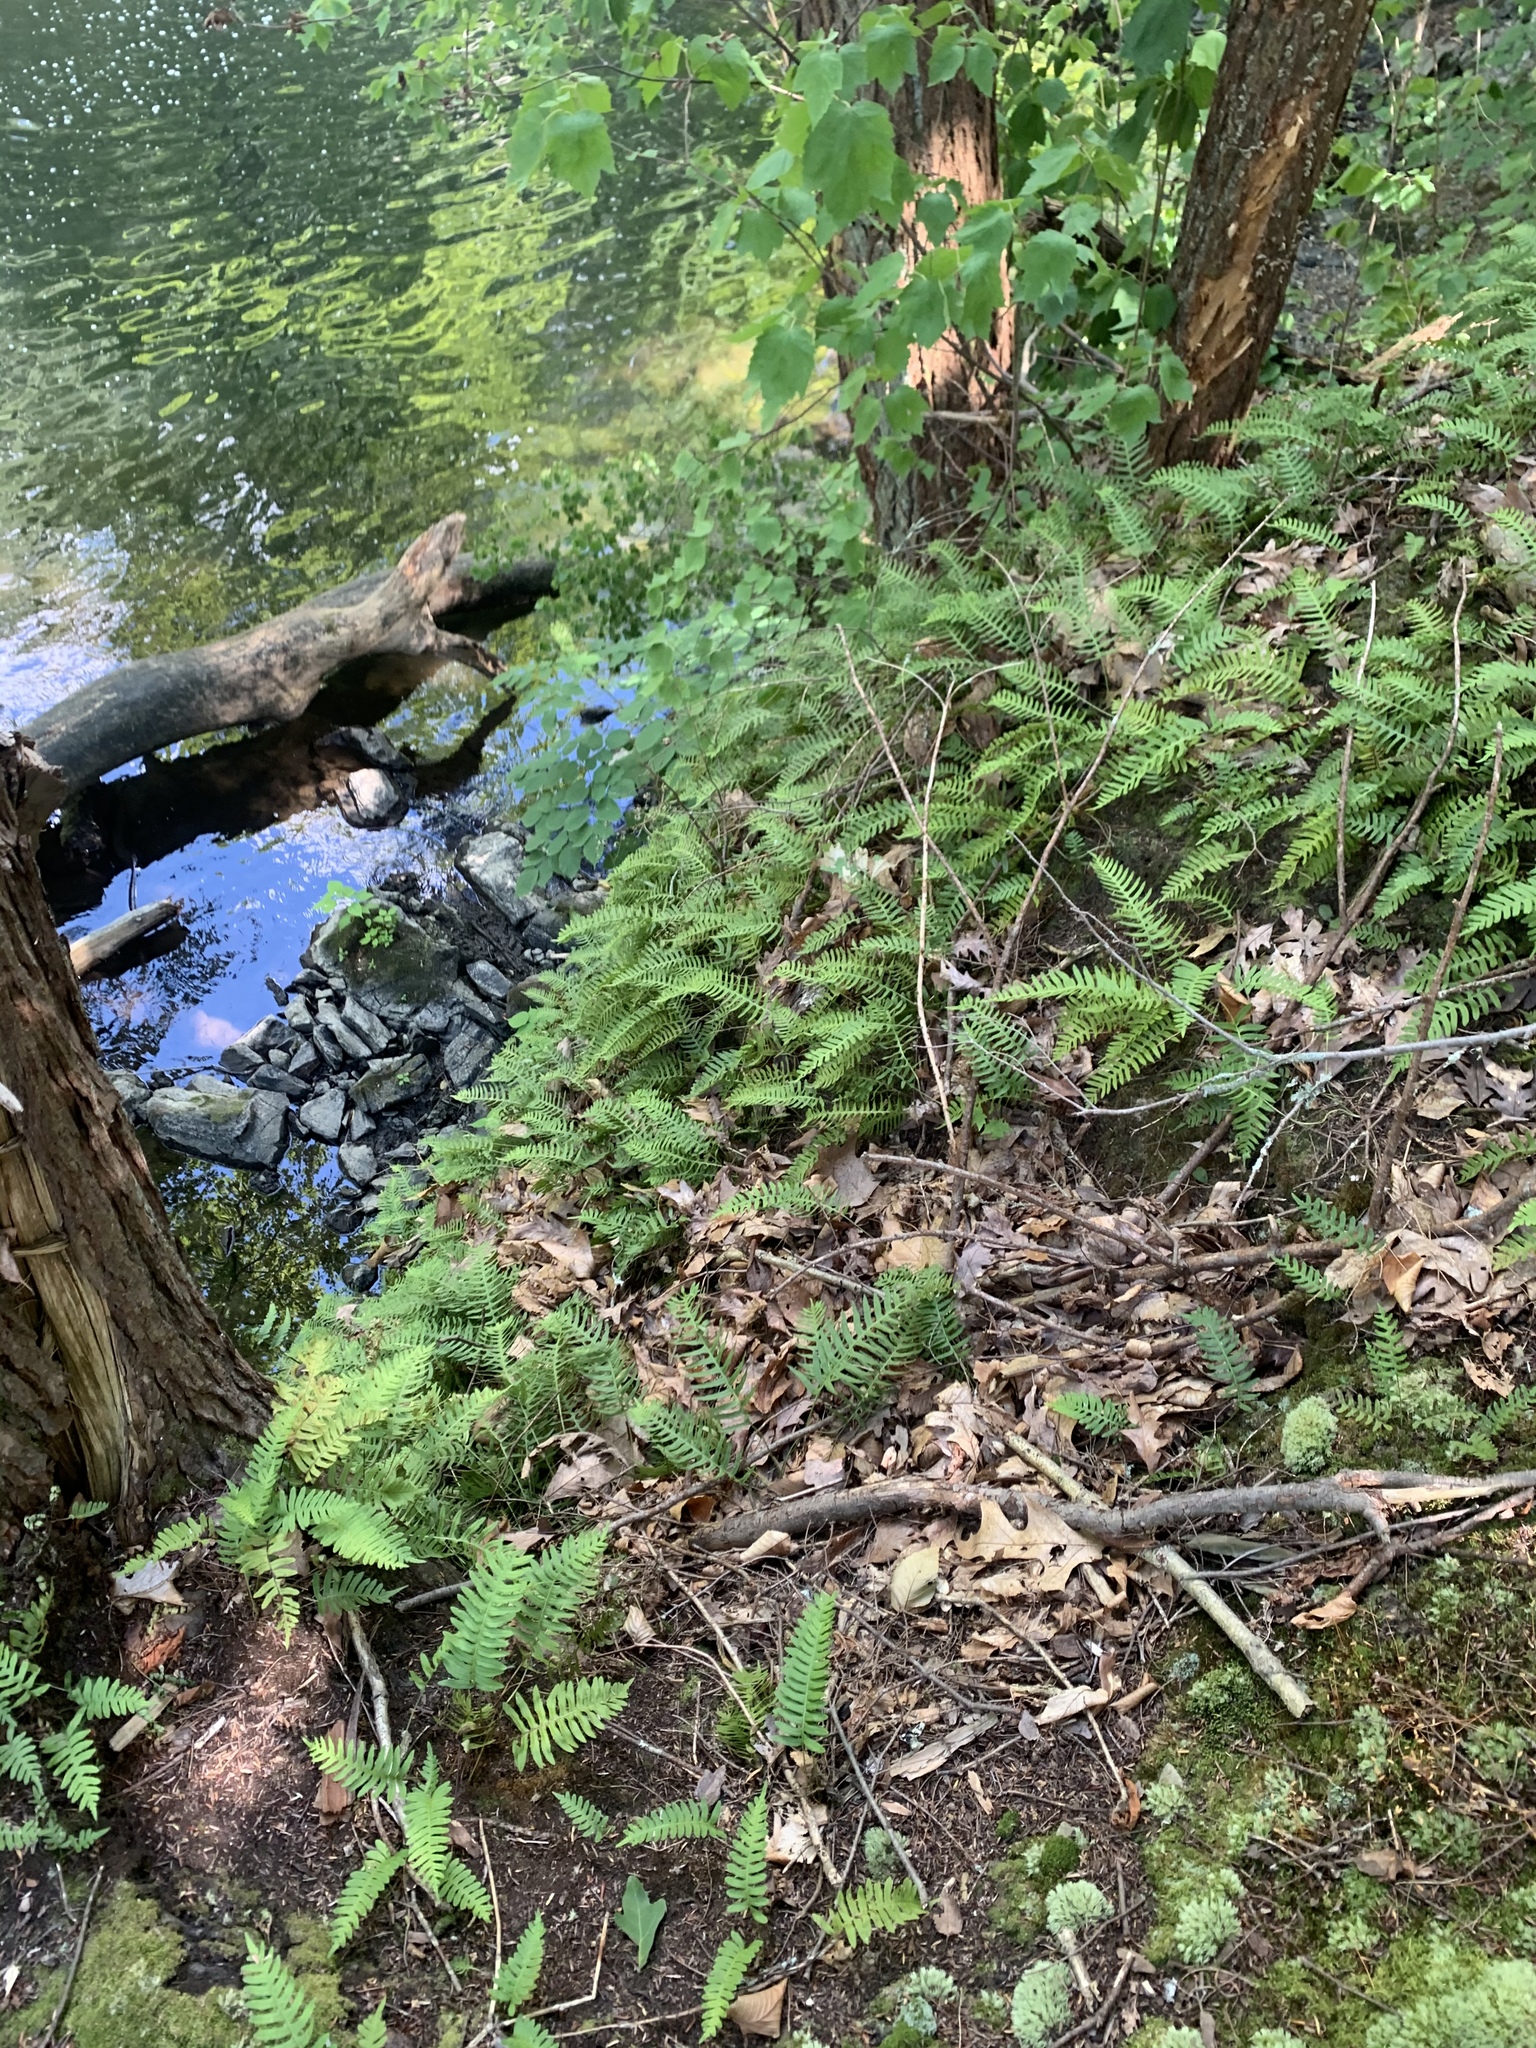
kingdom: Plantae
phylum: Tracheophyta
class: Polypodiopsida
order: Polypodiales
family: Polypodiaceae
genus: Polypodium
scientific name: Polypodium virginianum
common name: American wall fern
